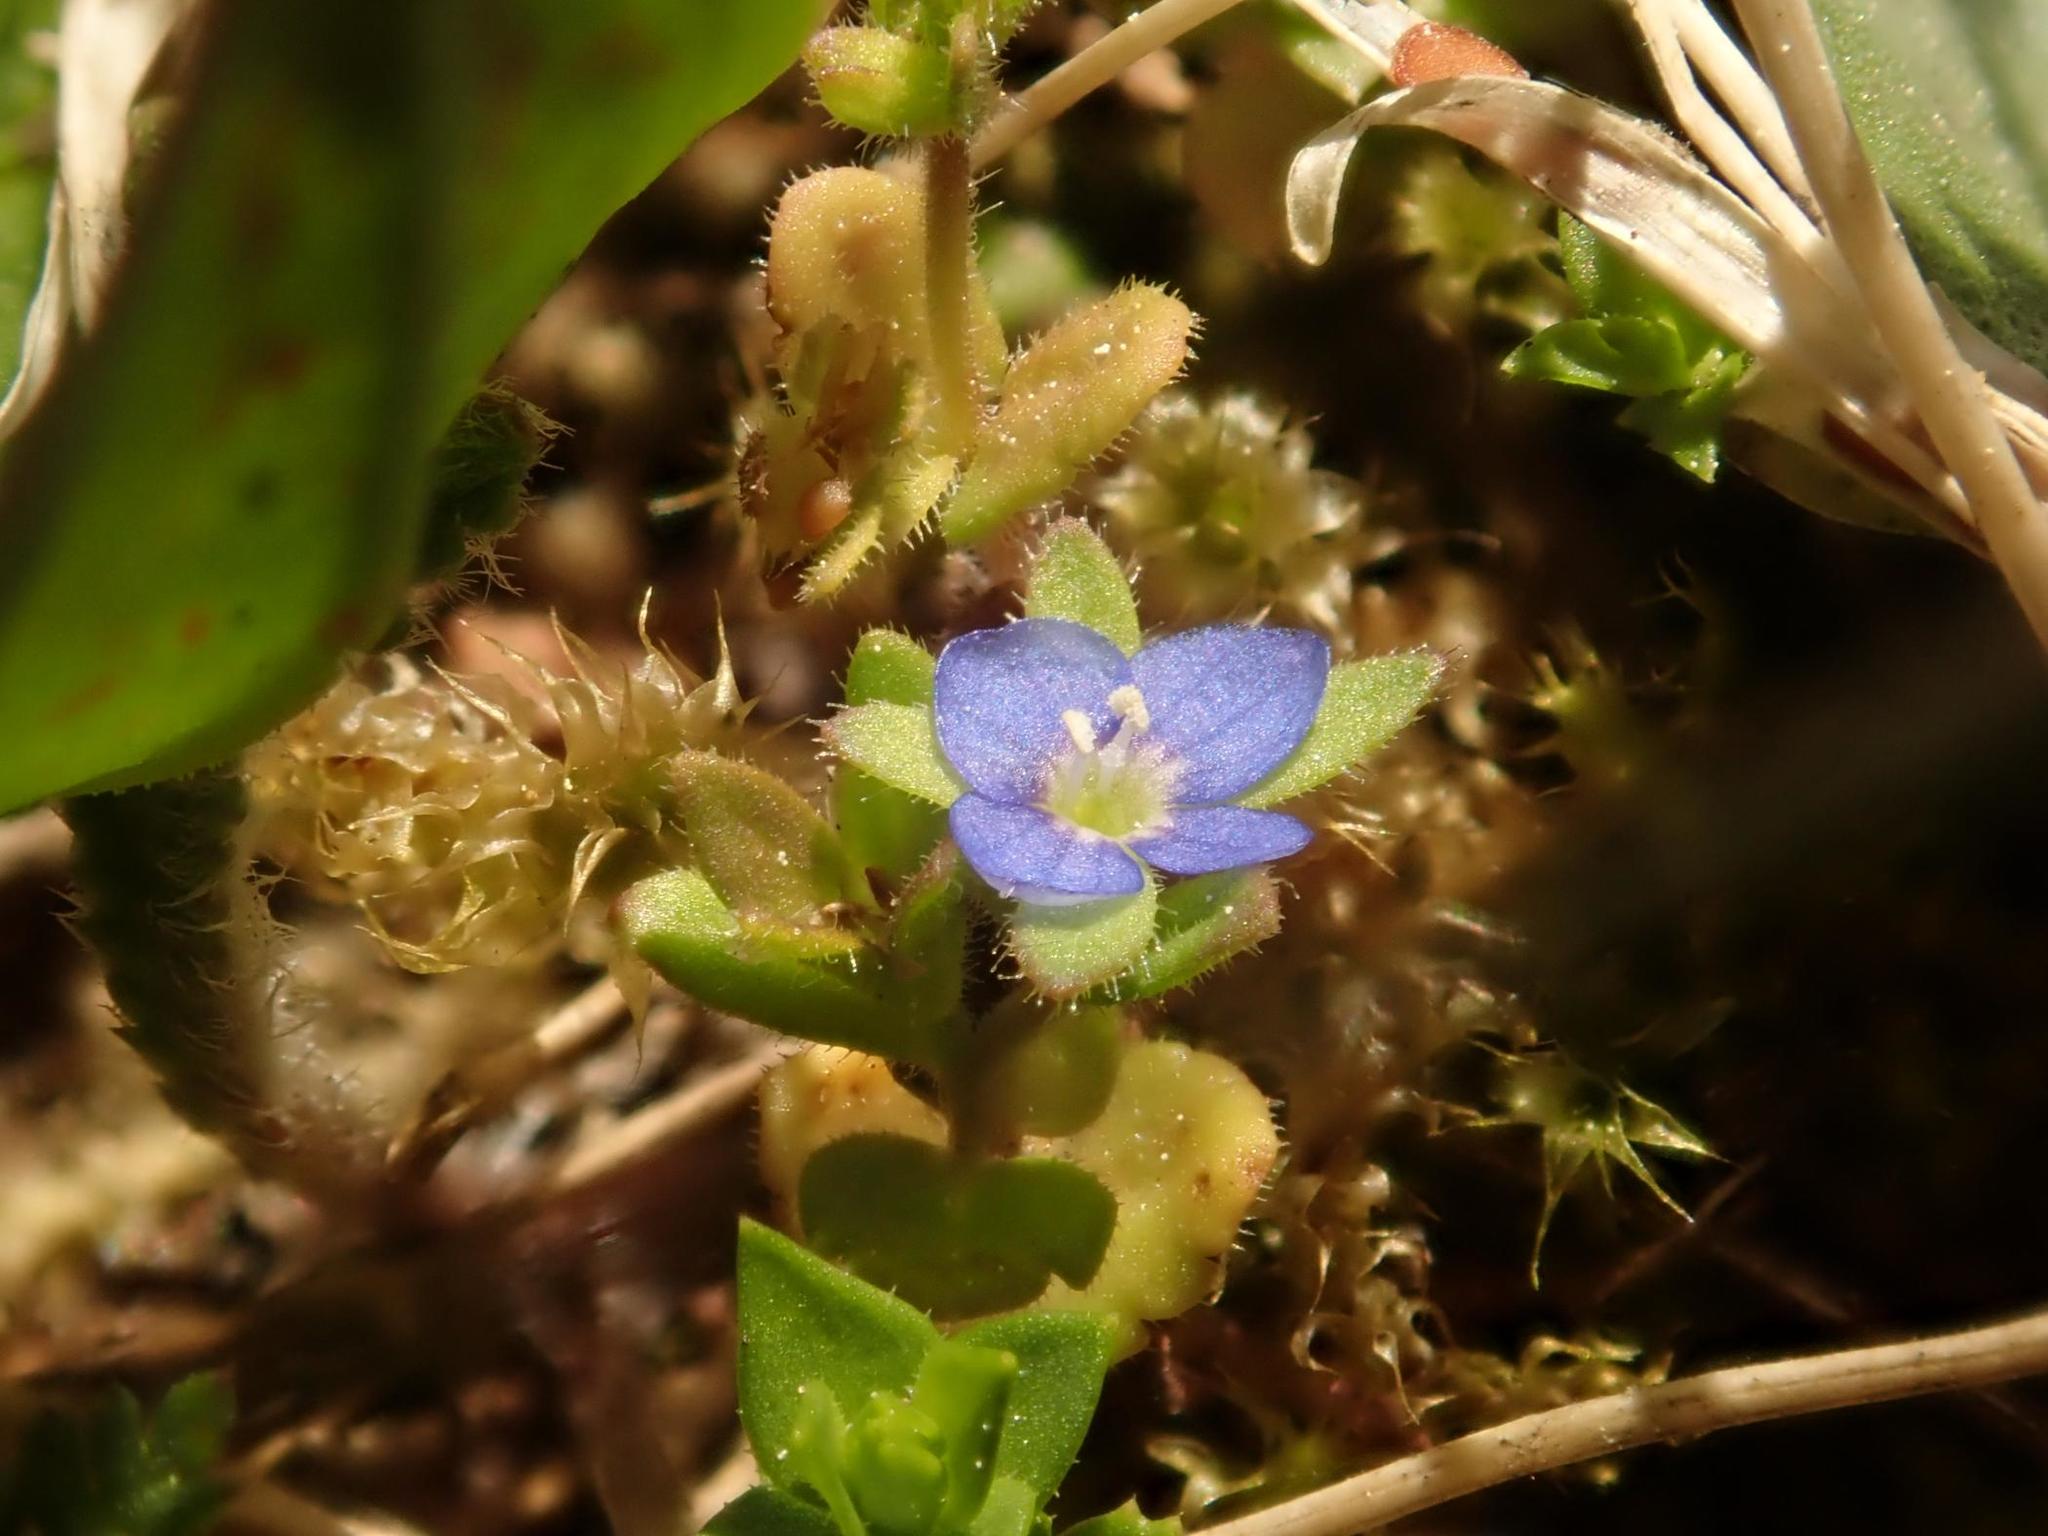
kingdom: Plantae
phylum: Tracheophyta
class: Magnoliopsida
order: Lamiales
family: Plantaginaceae
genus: Veronica
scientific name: Veronica arvensis
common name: Corn speedwell
